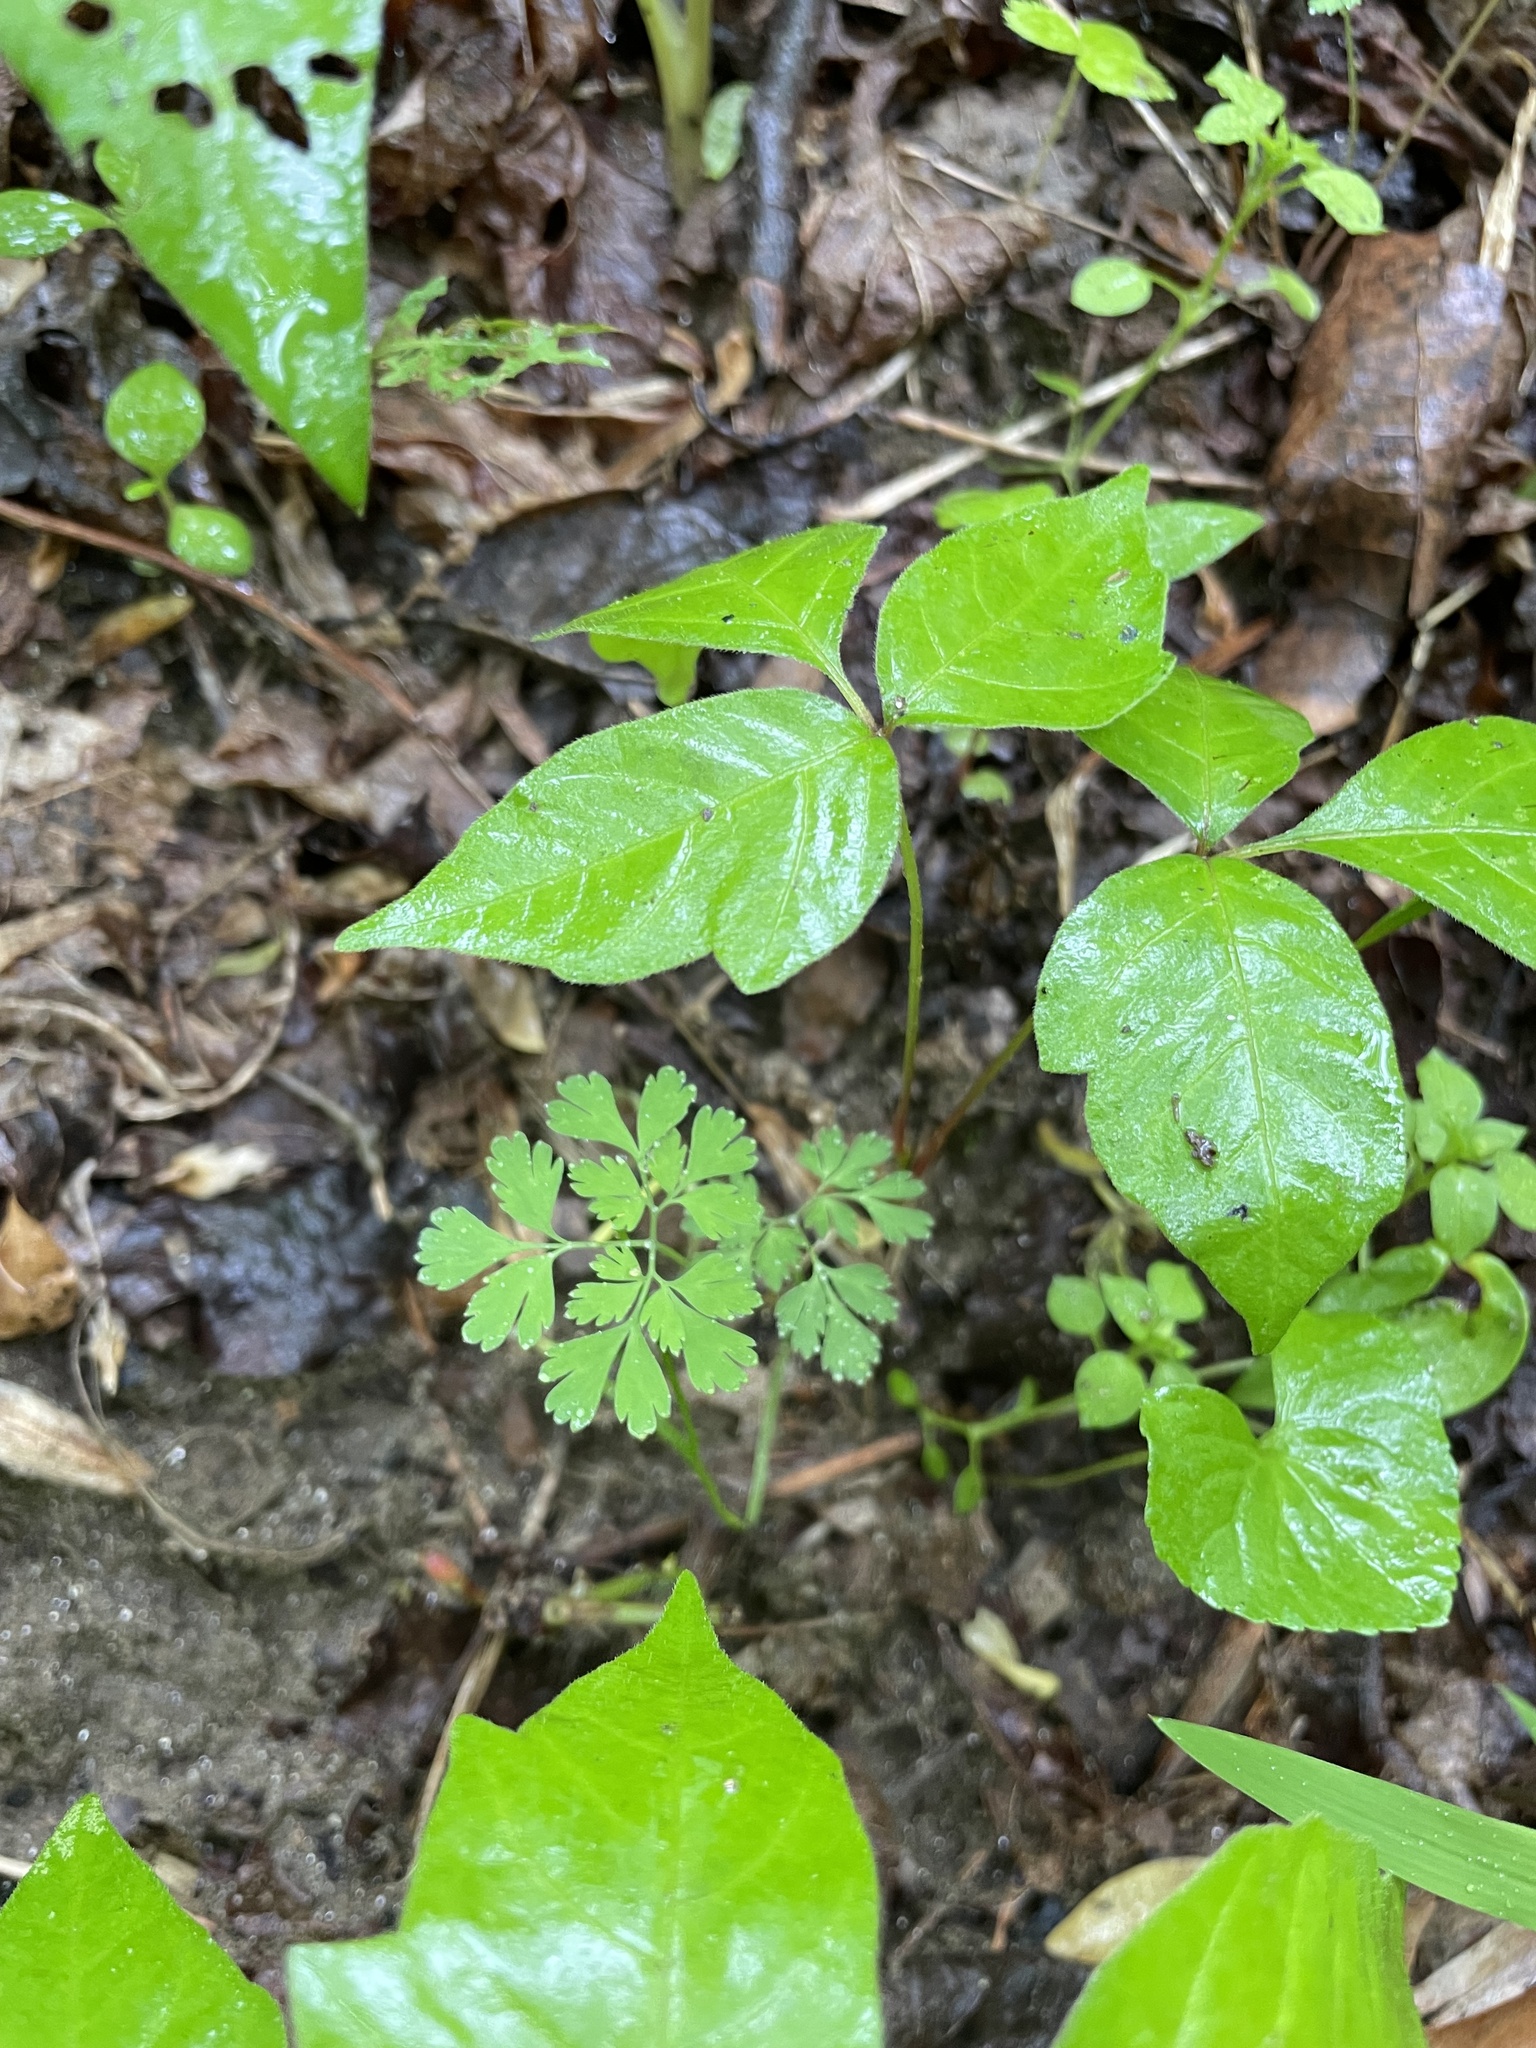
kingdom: Plantae
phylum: Tracheophyta
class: Magnoliopsida
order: Ranunculales
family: Papaveraceae
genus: Corydalis
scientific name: Corydalis flavula
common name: Yellow corydalis
